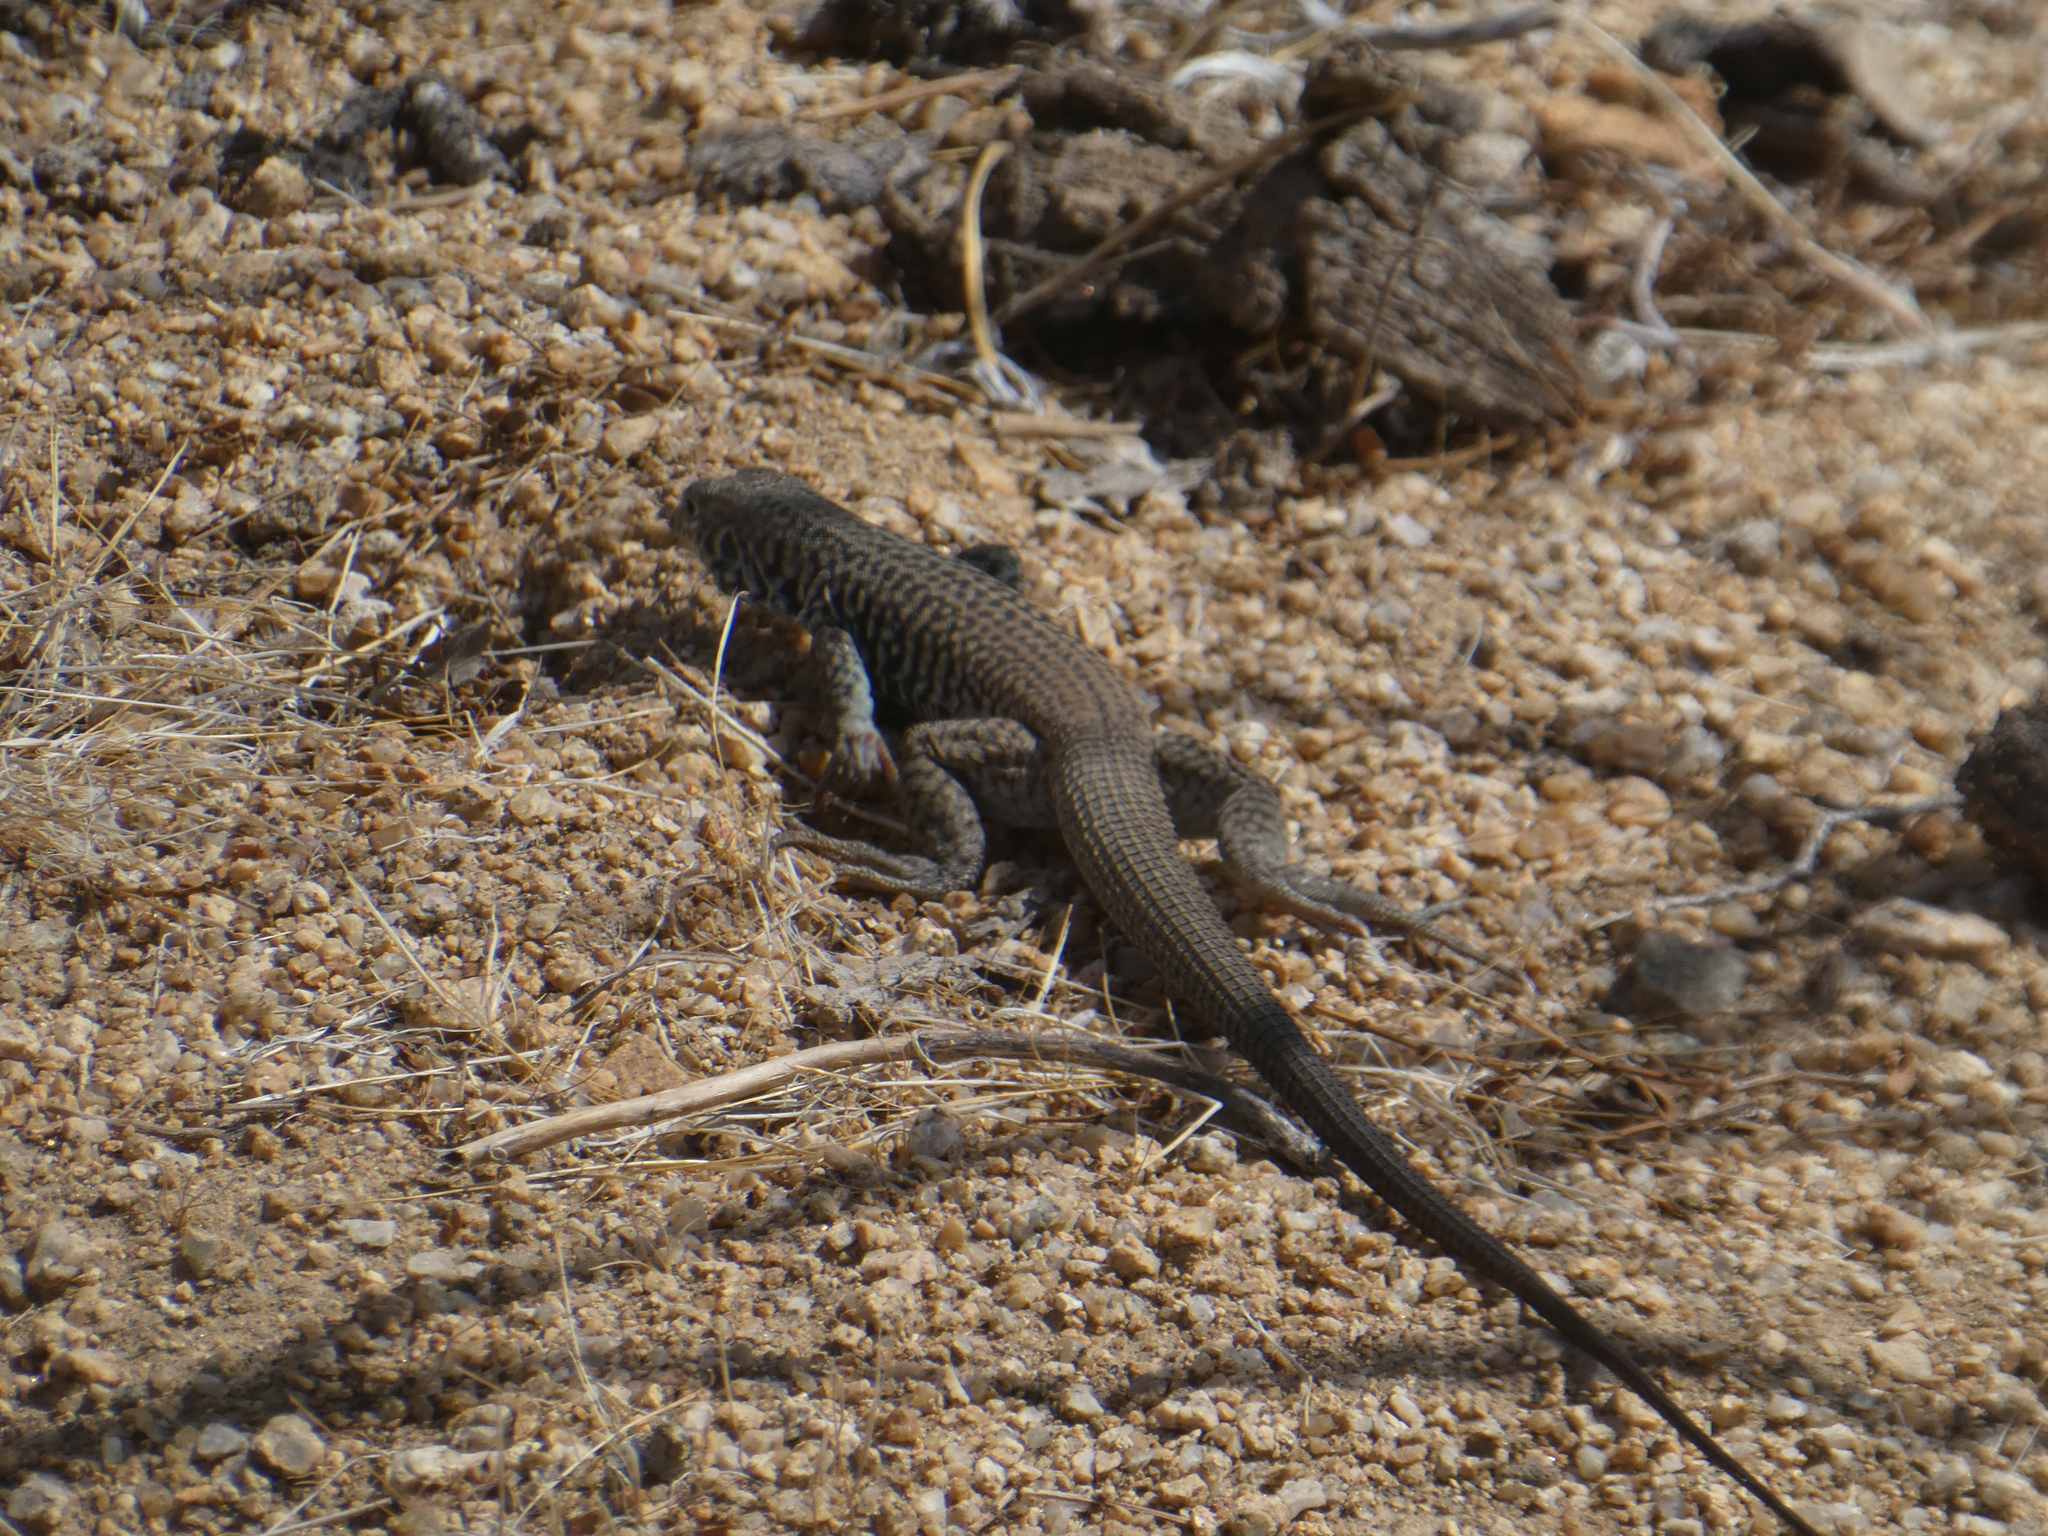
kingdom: Animalia
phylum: Chordata
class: Squamata
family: Teiidae
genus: Aspidoscelis
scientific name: Aspidoscelis tigris
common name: Tiger whiptail
